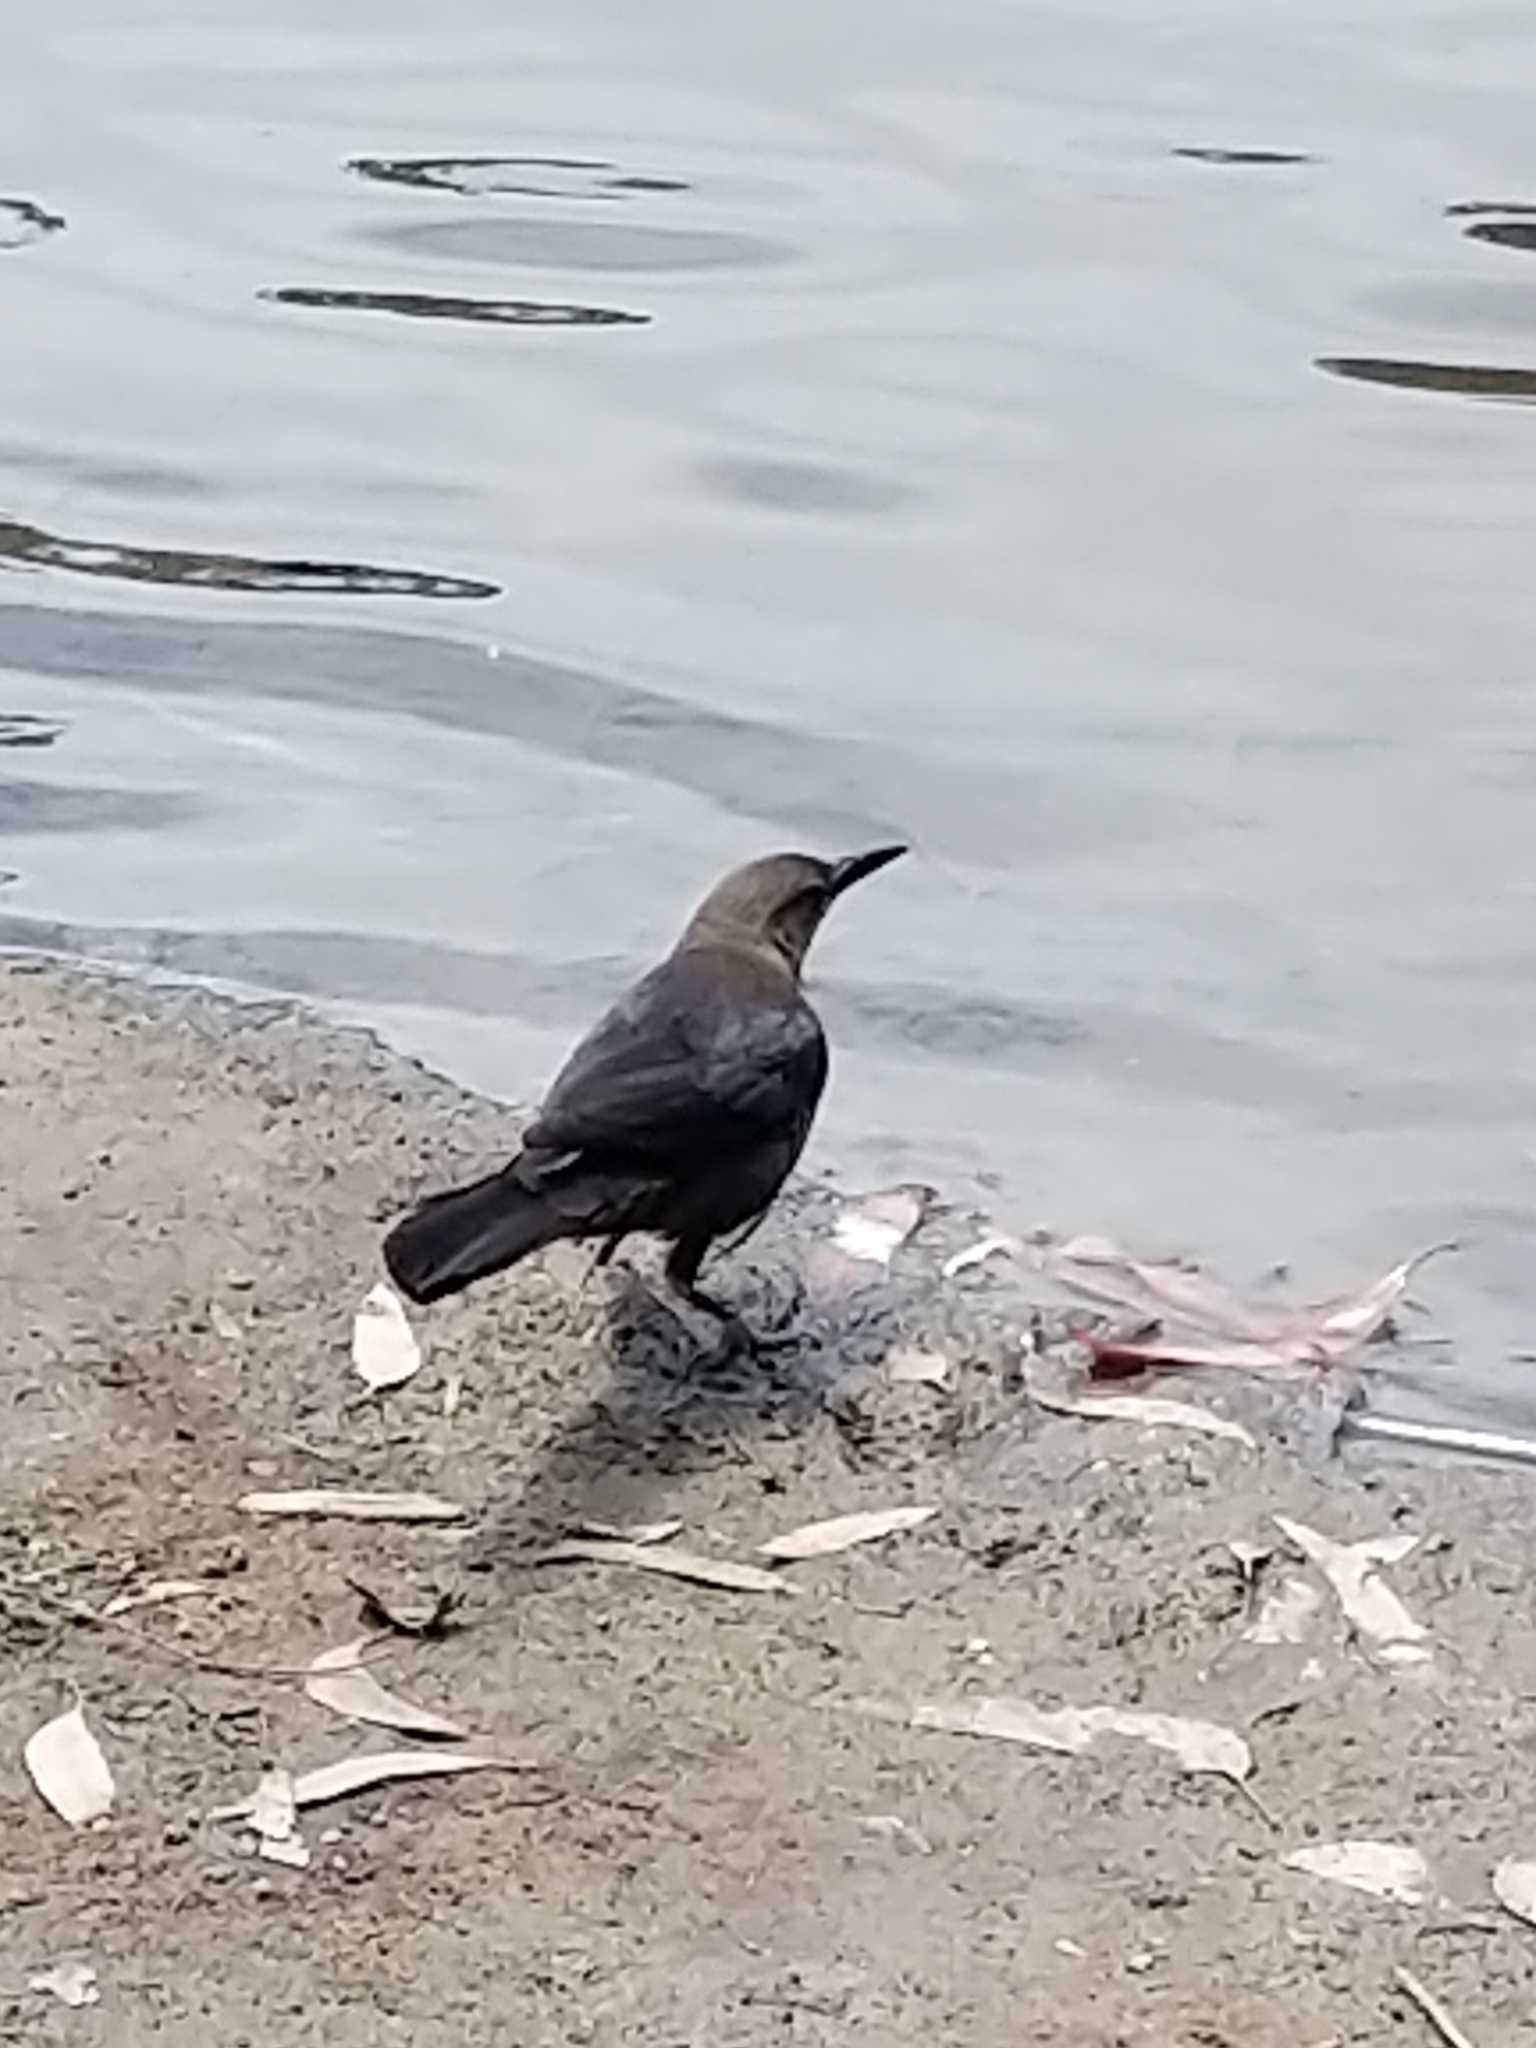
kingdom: Animalia
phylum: Chordata
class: Aves
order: Passeriformes
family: Icteridae
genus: Quiscalus
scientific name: Quiscalus mexicanus
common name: Great-tailed grackle
